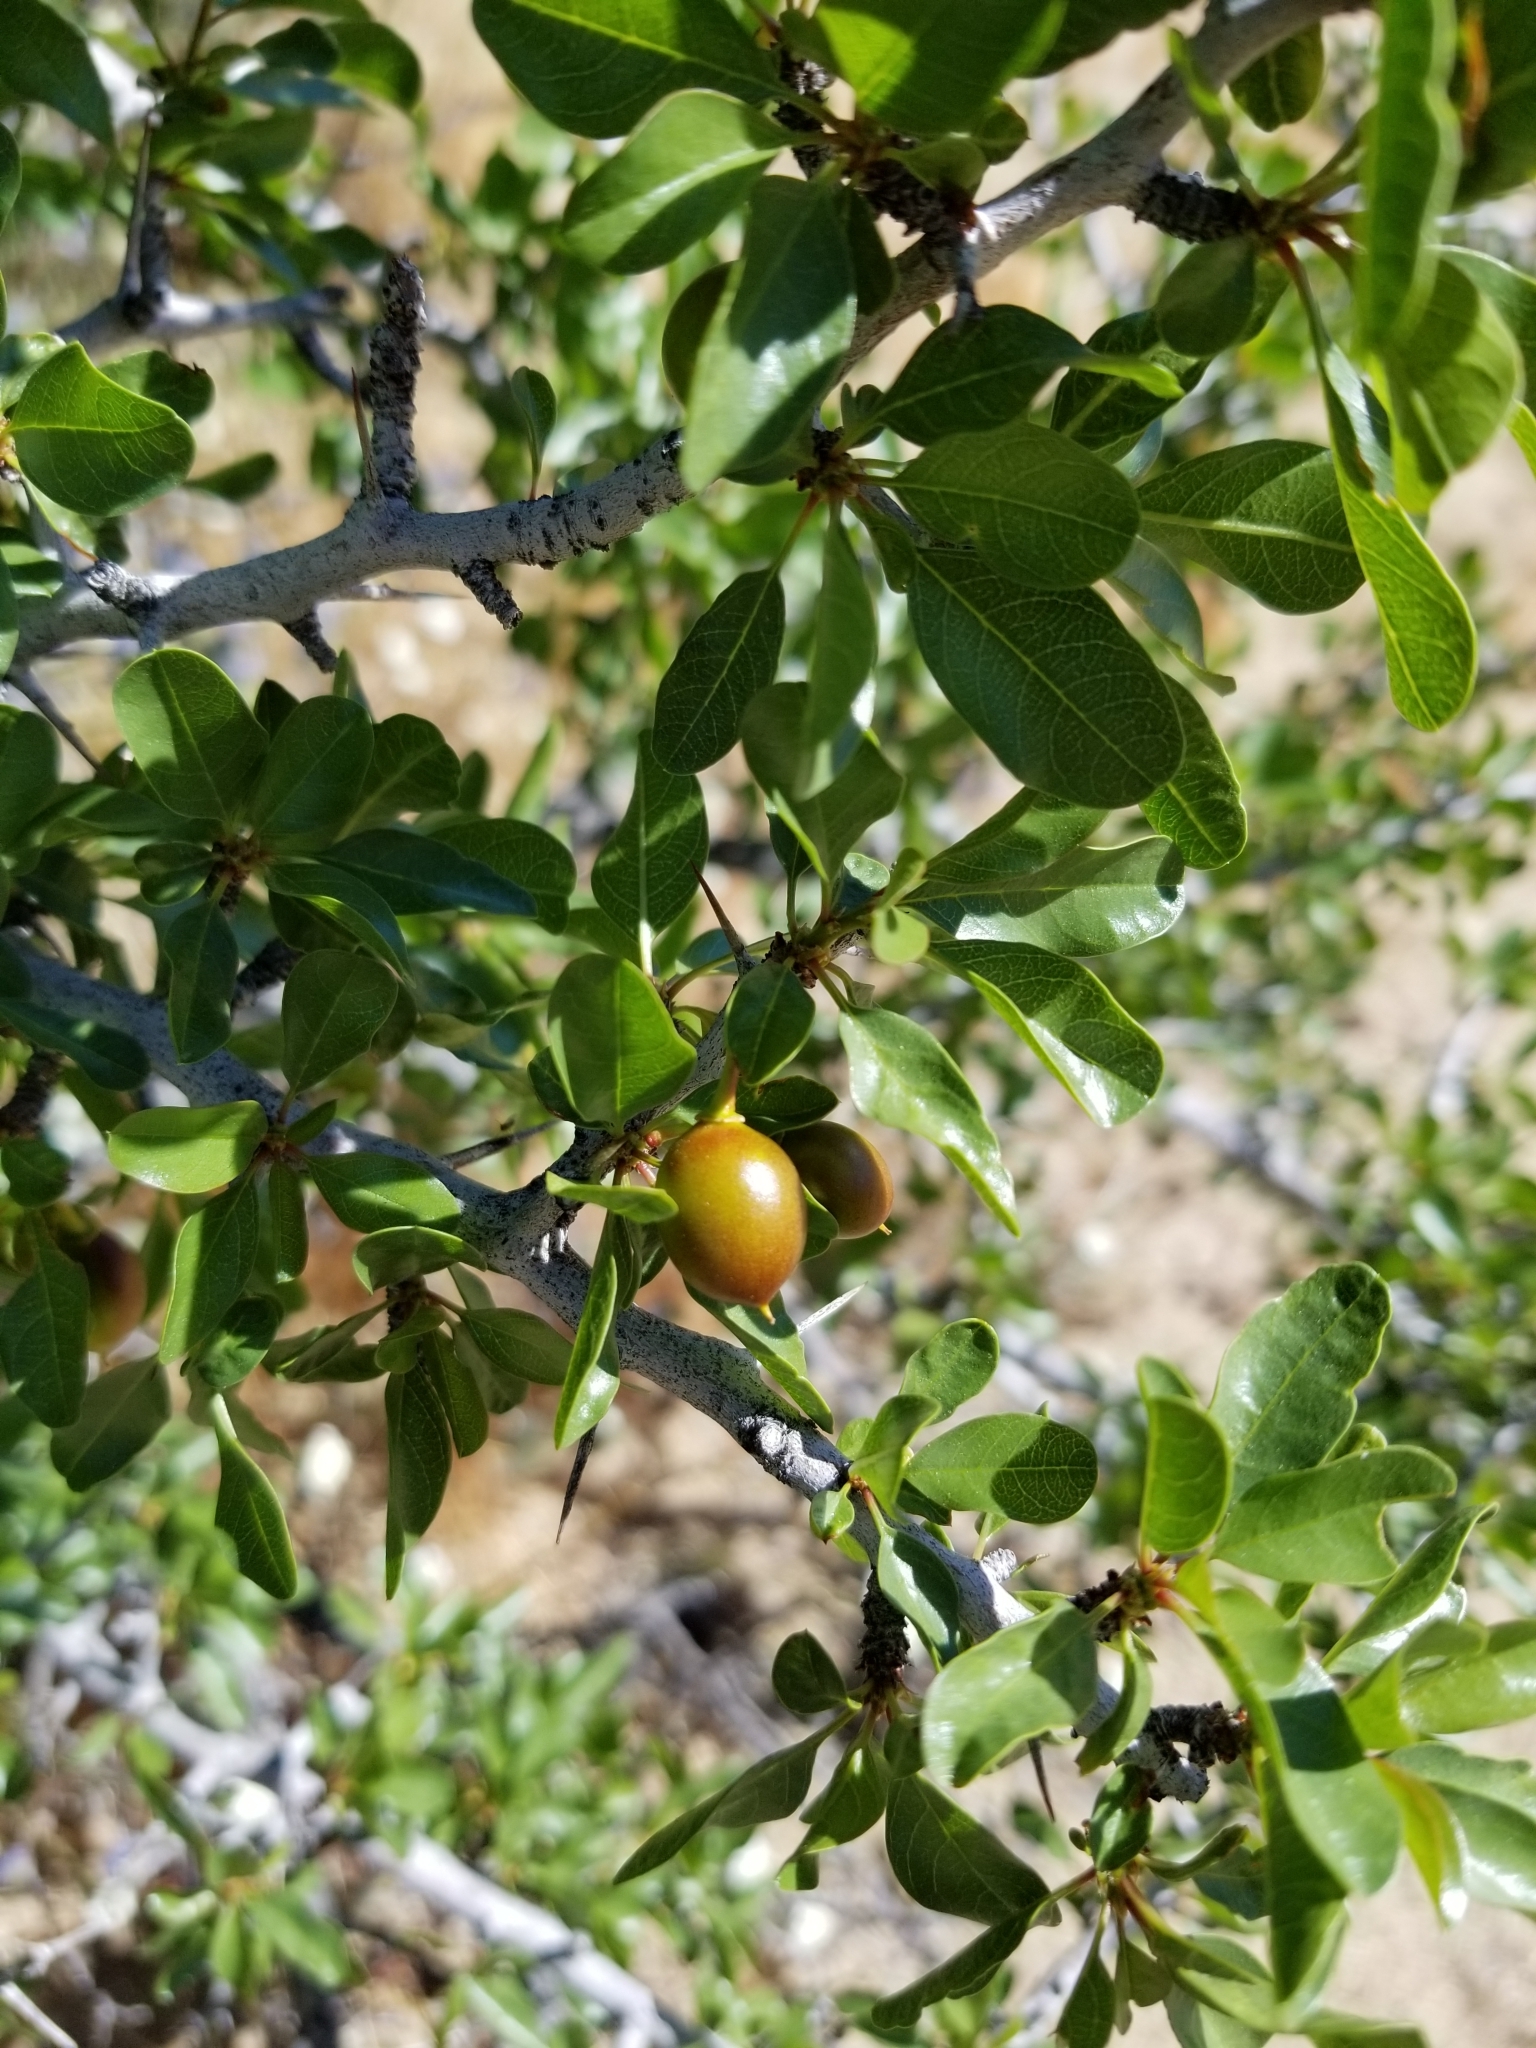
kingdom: Plantae
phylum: Tracheophyta
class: Magnoliopsida
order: Rosales
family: Rhamnaceae
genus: Pseudoziziphus
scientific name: Pseudoziziphus parryi
